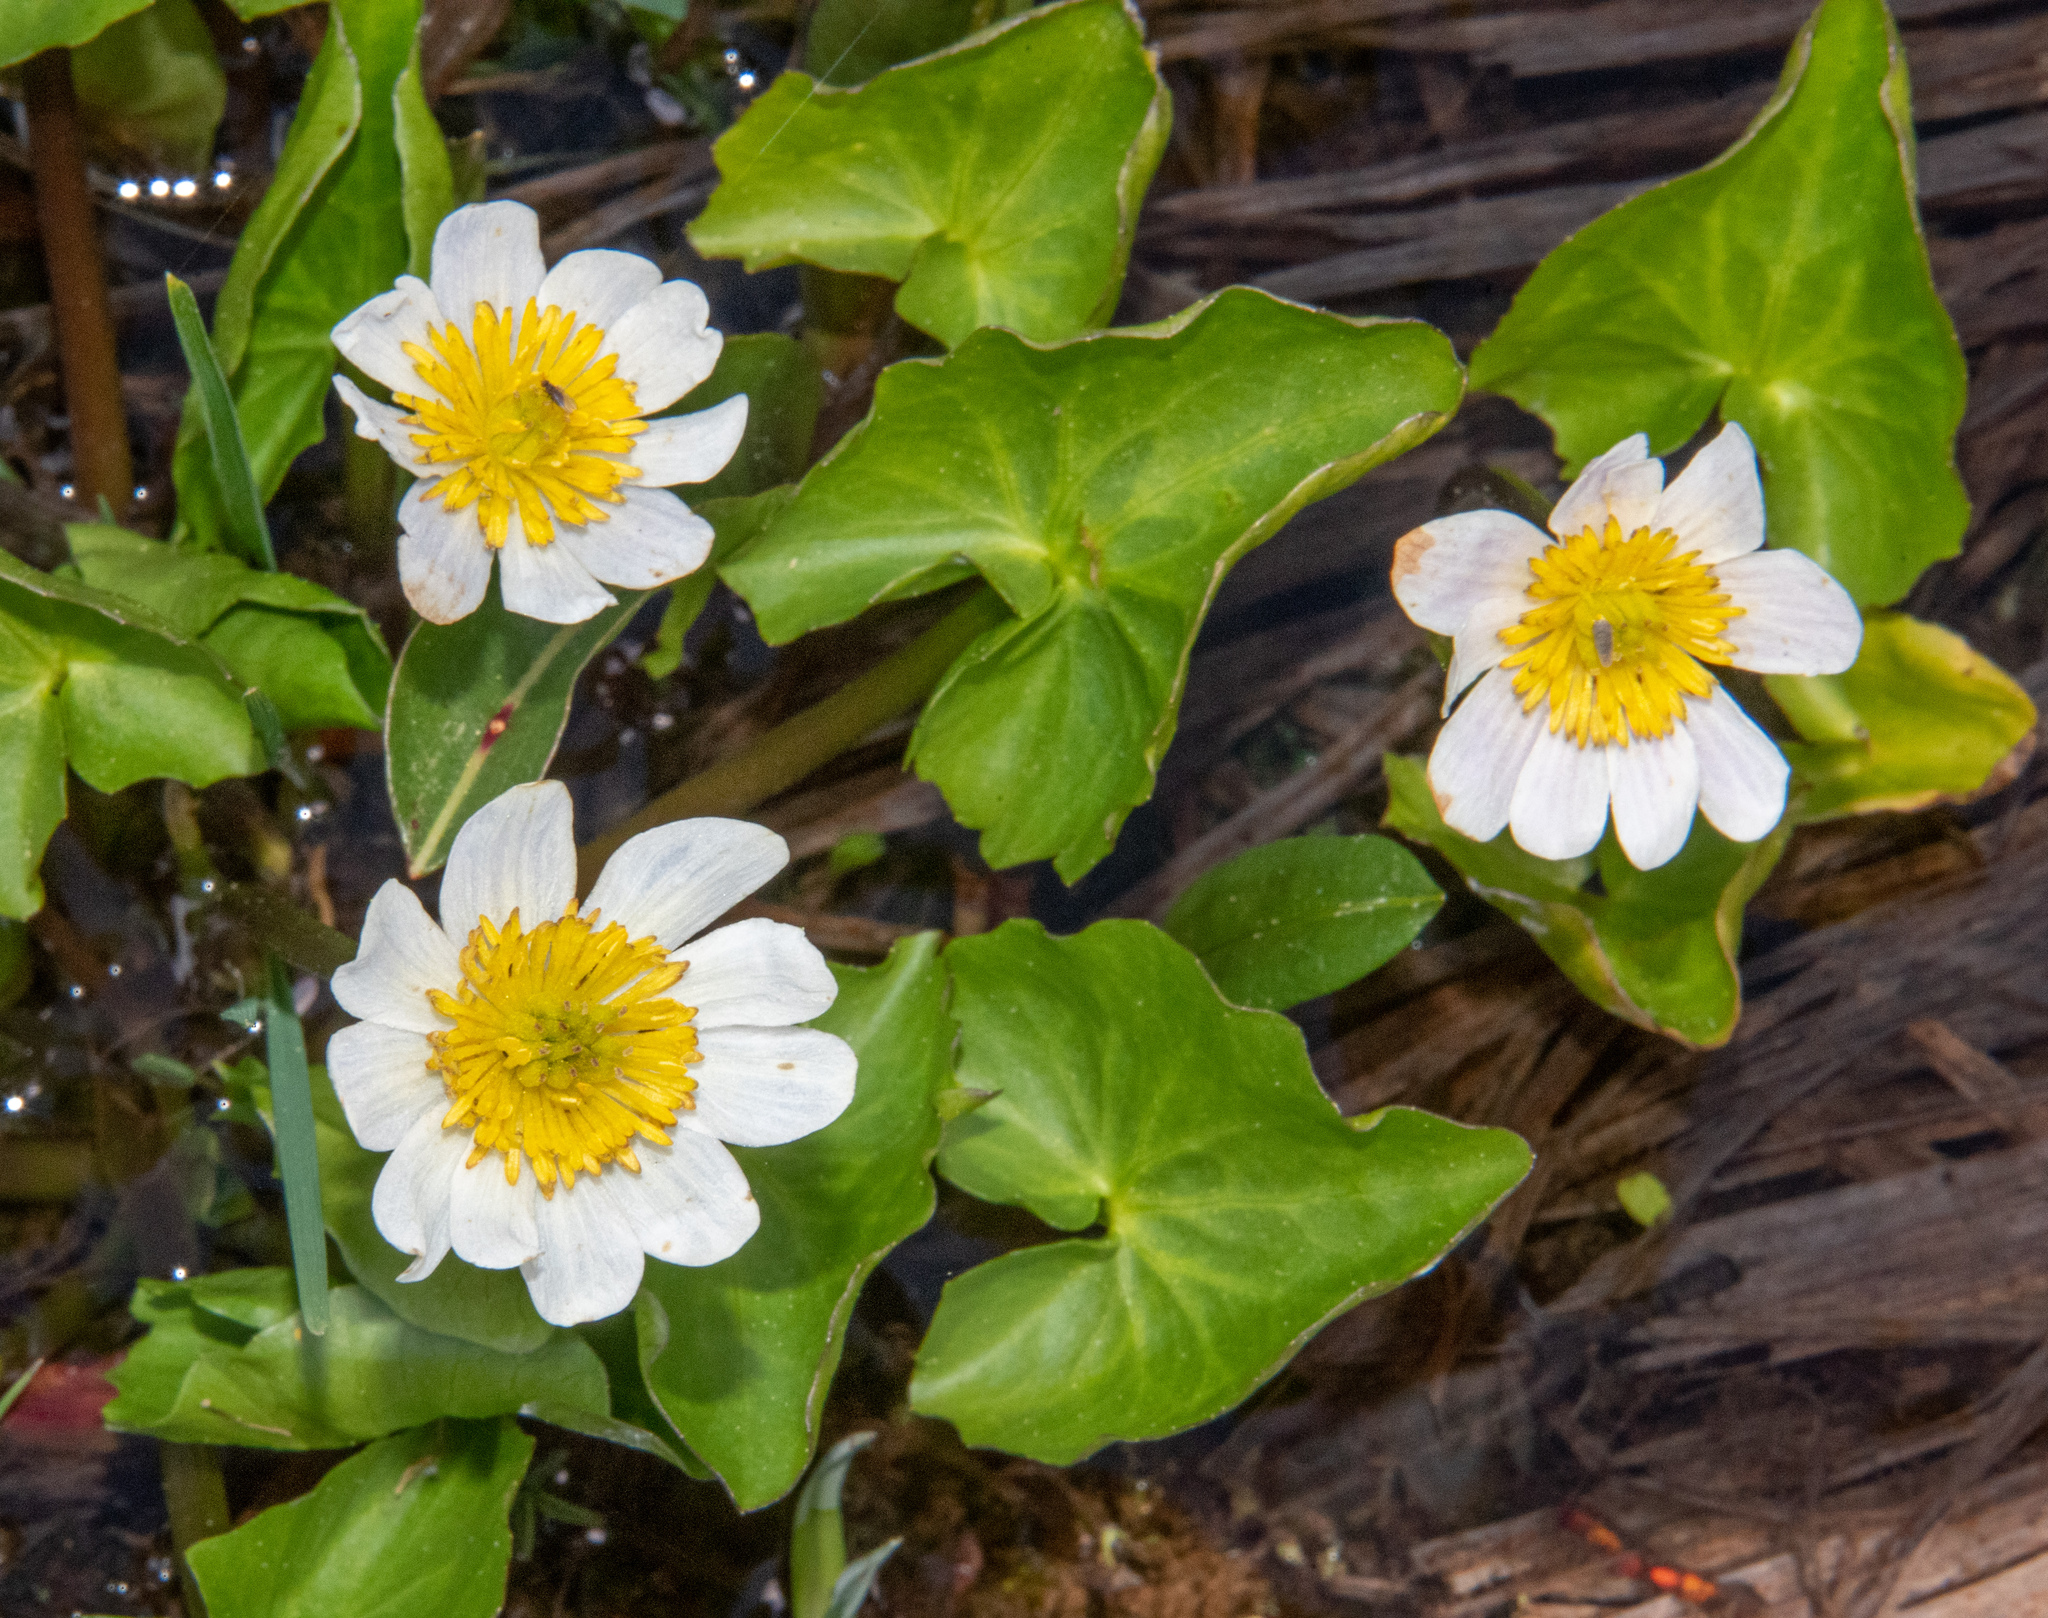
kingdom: Plantae
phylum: Tracheophyta
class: Magnoliopsida
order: Ranunculales
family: Ranunculaceae
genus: Caltha
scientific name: Caltha leptosepala
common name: Elkslip
